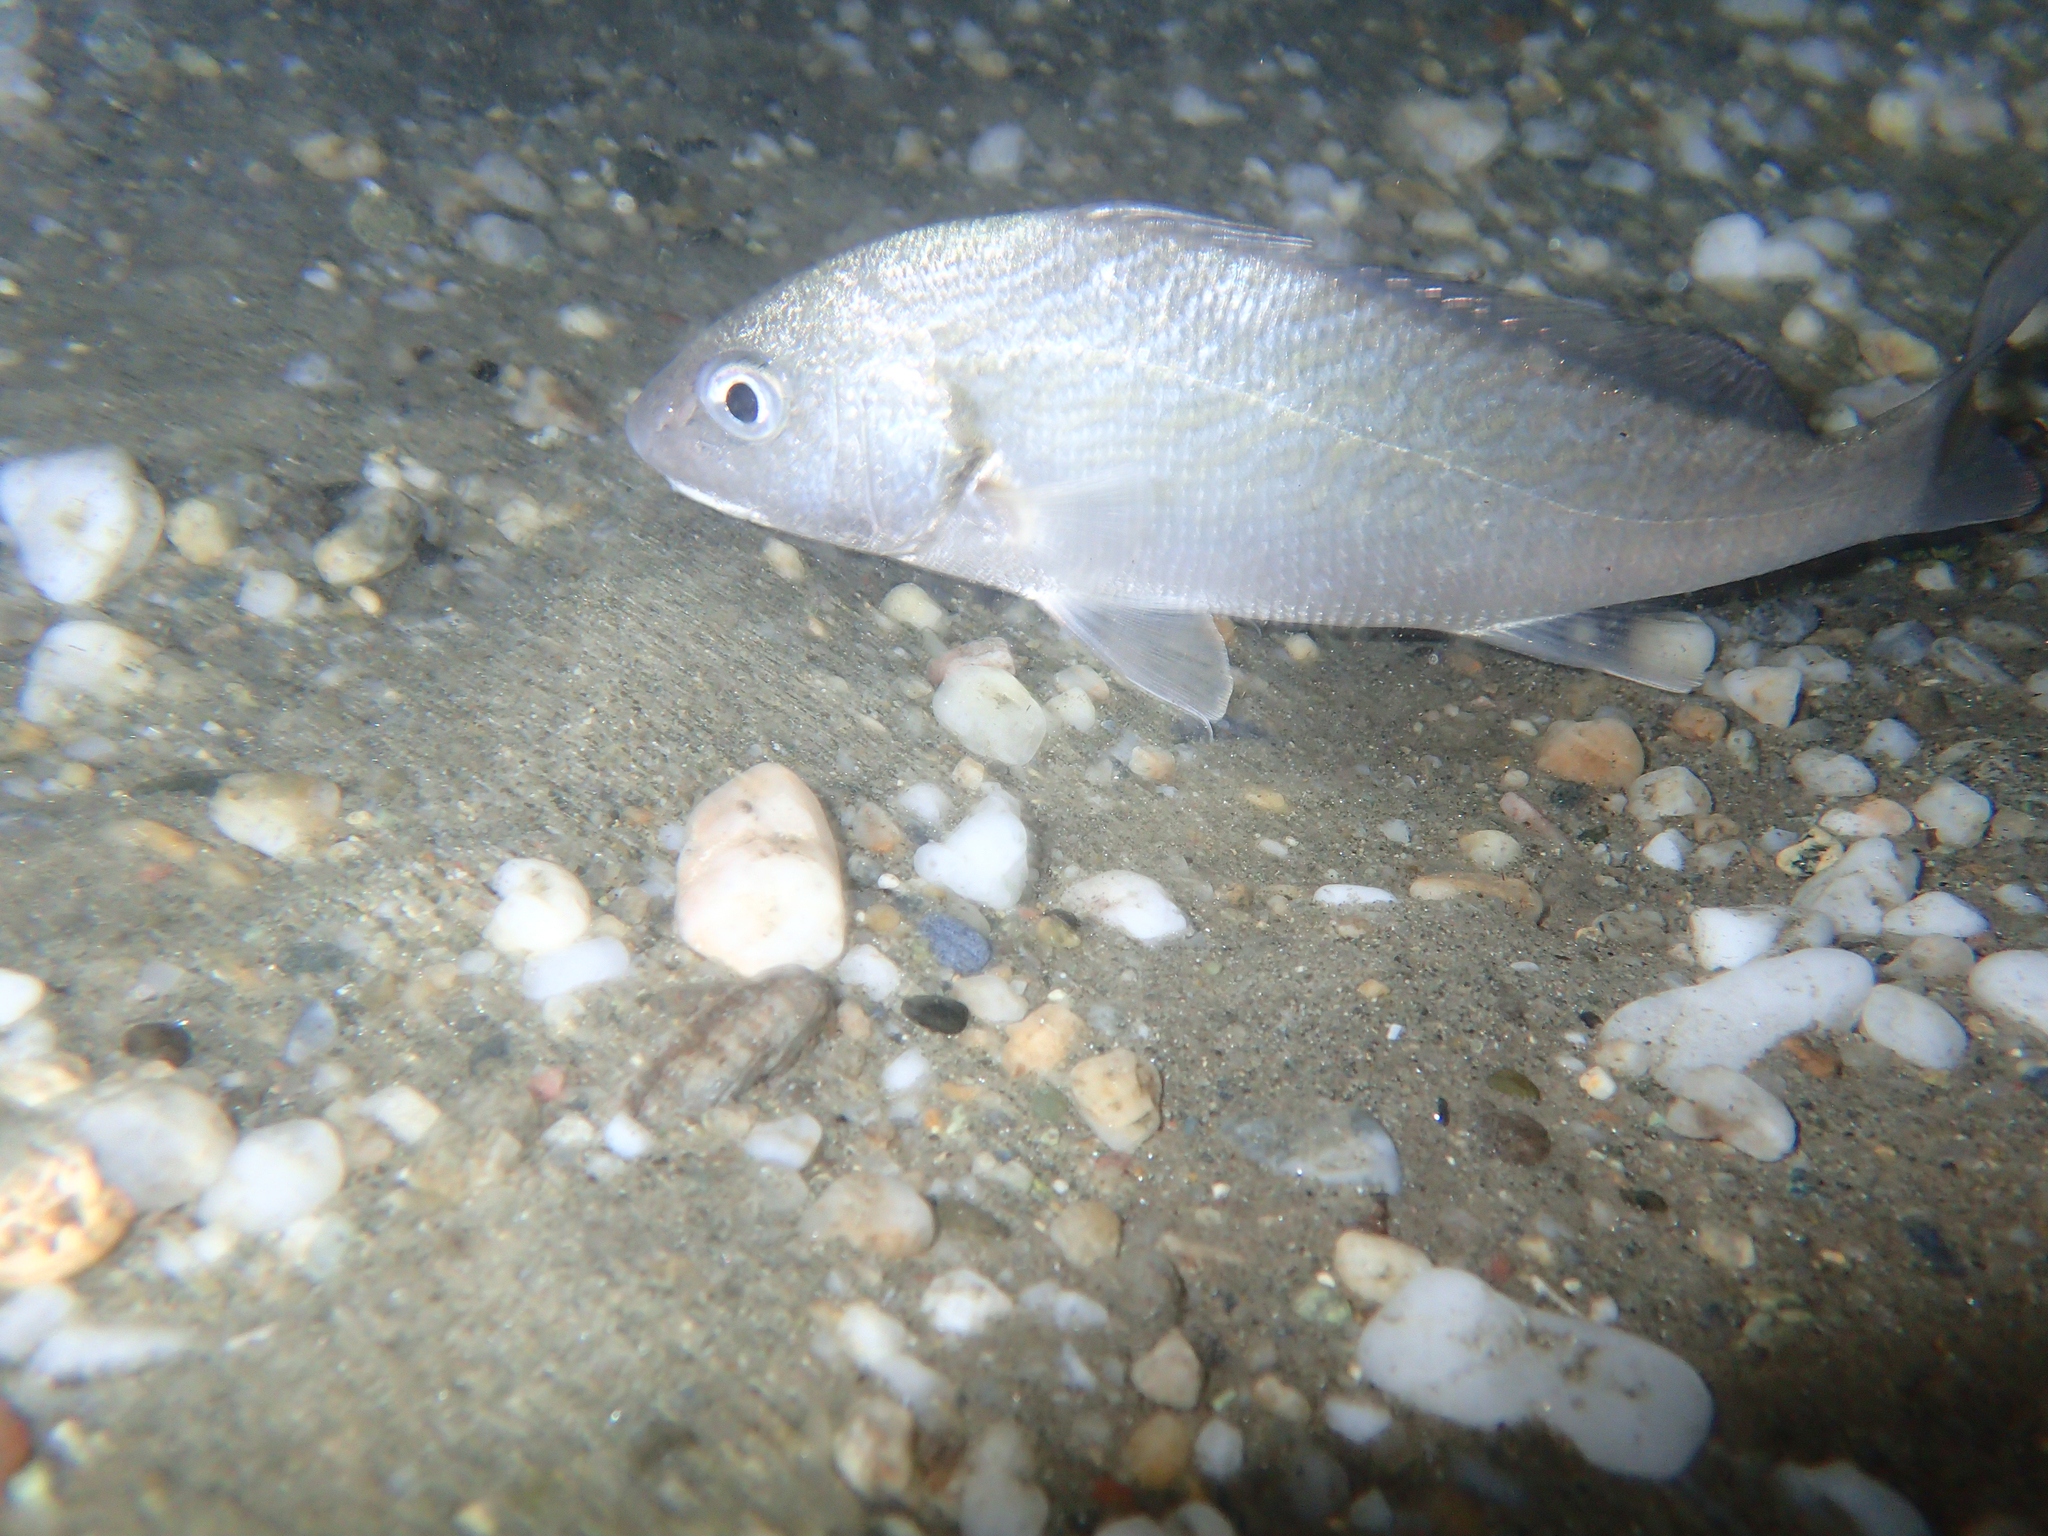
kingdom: Animalia
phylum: Chordata
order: Perciformes
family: Sciaenidae
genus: Umbrina
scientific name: Umbrina cirrosa
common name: Shi drum
